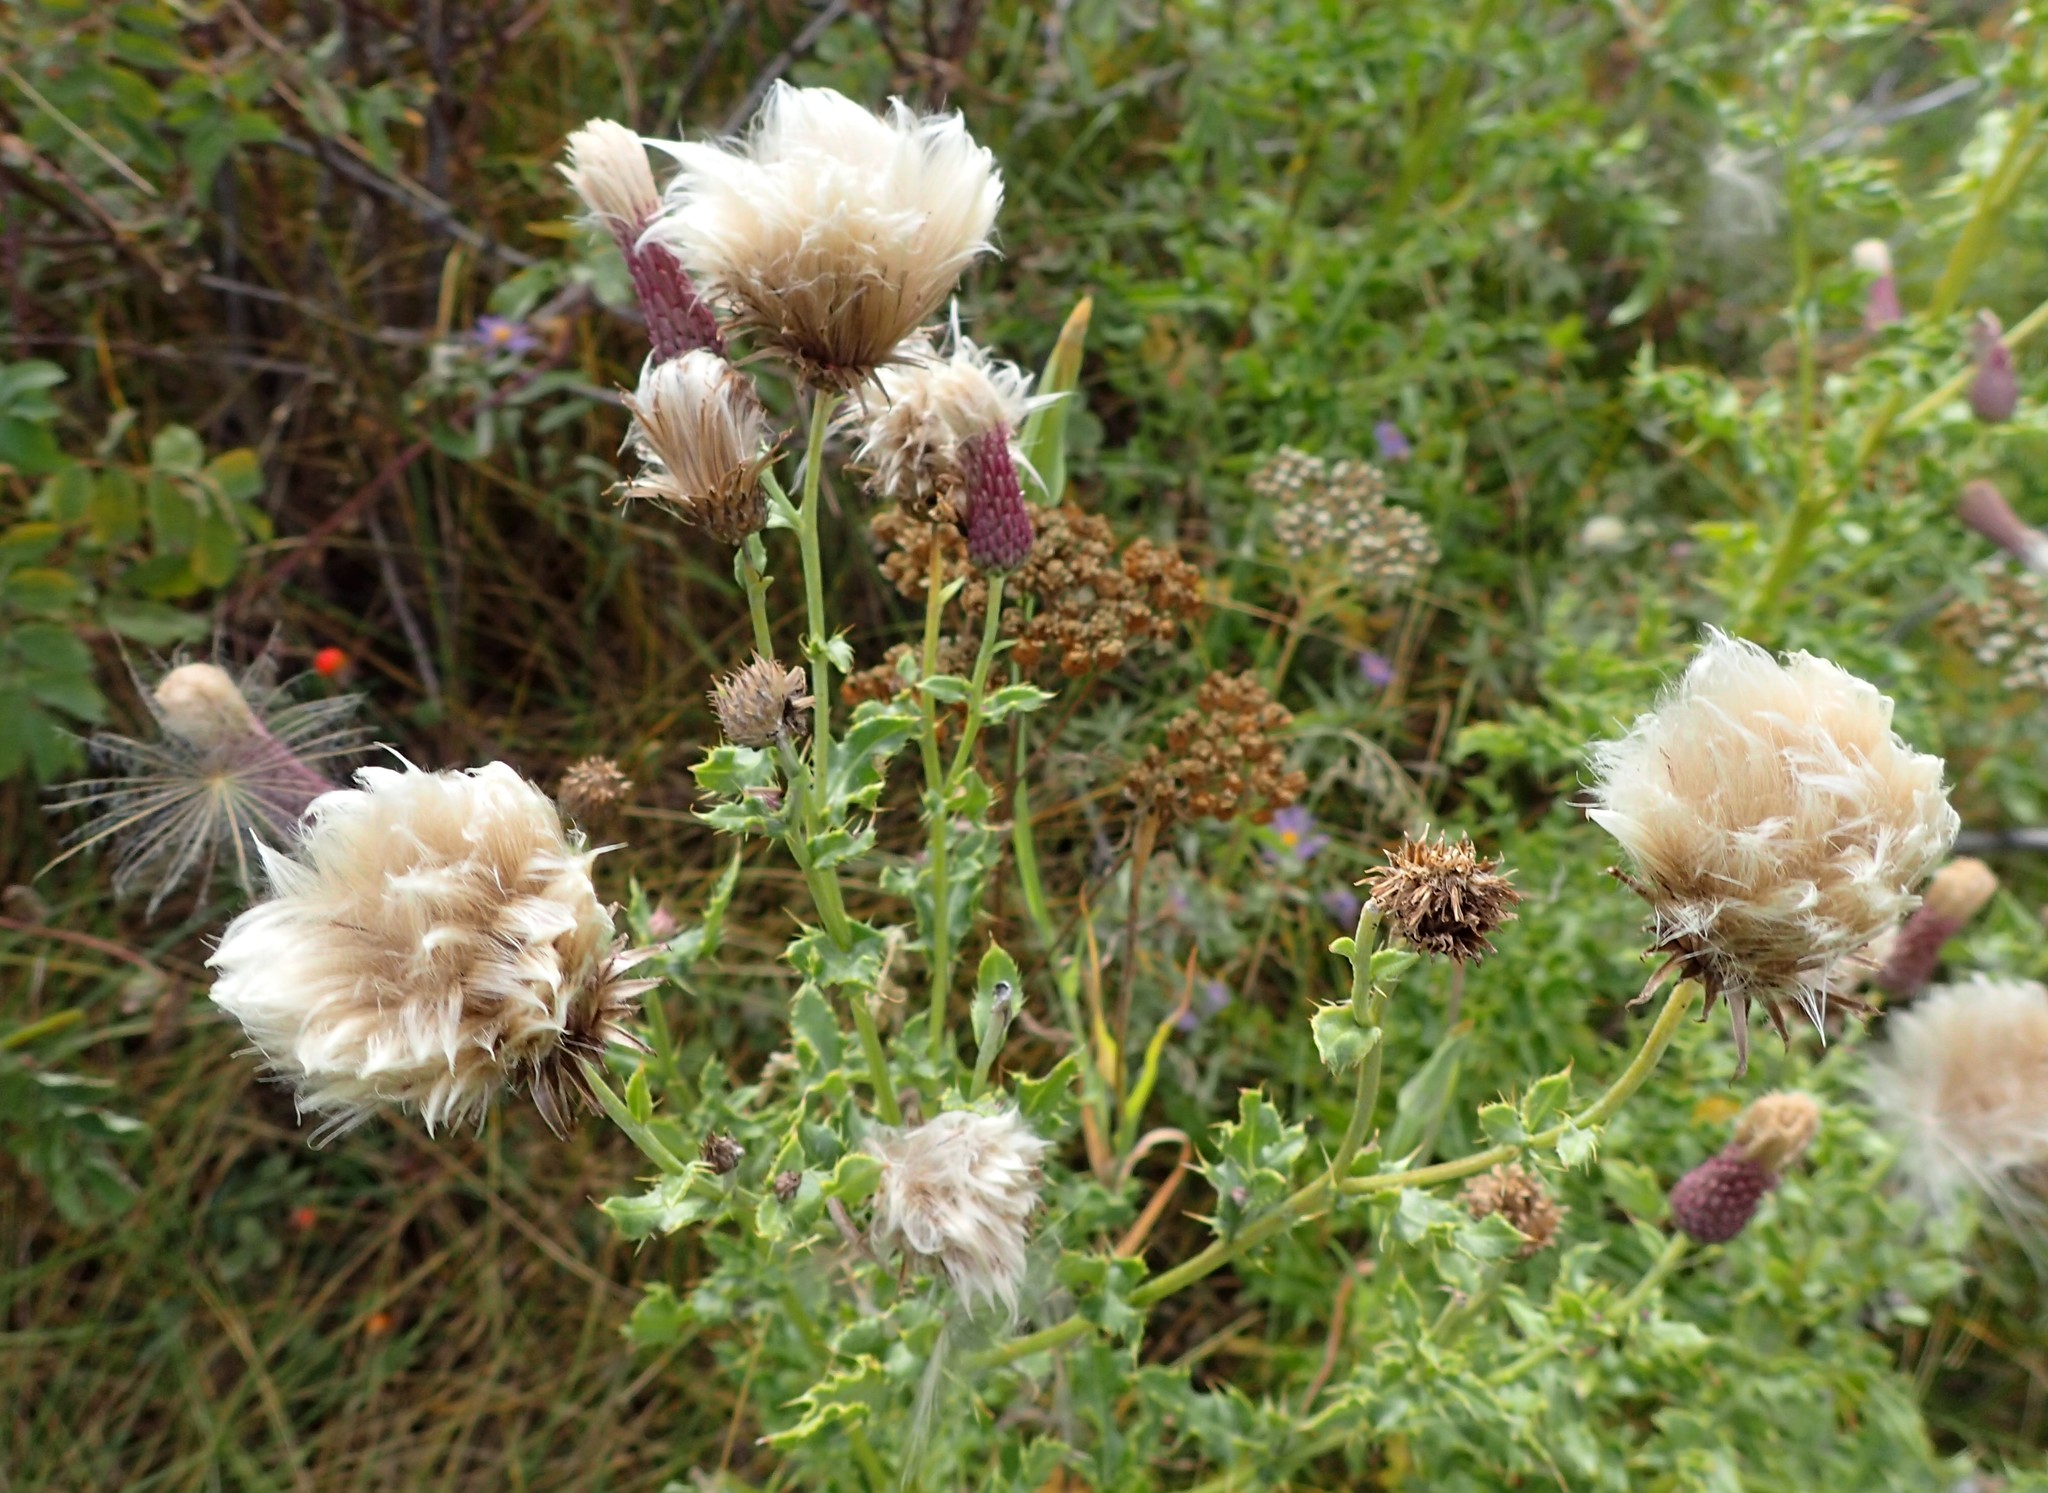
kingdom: Plantae
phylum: Tracheophyta
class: Magnoliopsida
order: Asterales
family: Asteraceae
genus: Cirsium
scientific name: Cirsium arvense
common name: Creeping thistle
